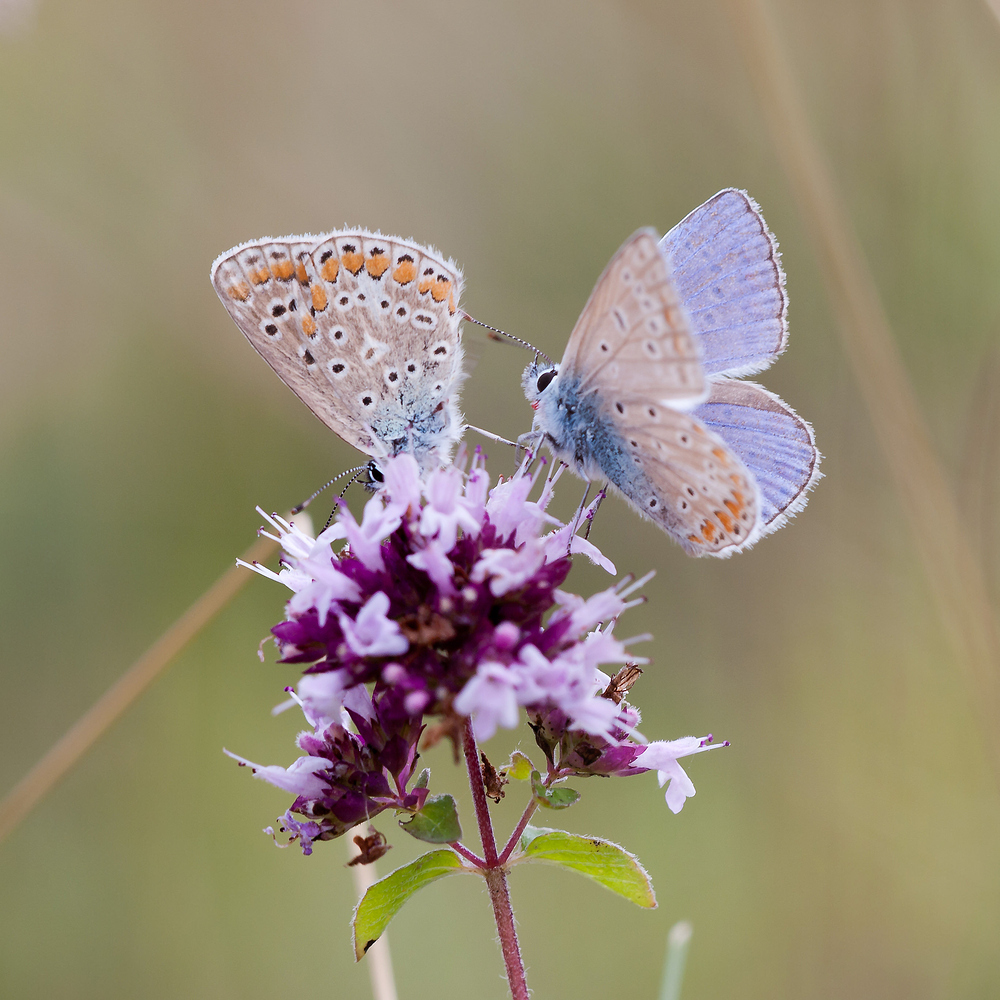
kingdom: Animalia
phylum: Arthropoda
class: Insecta
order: Lepidoptera
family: Lycaenidae
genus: Polyommatus
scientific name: Polyommatus icarus
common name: Common blue
